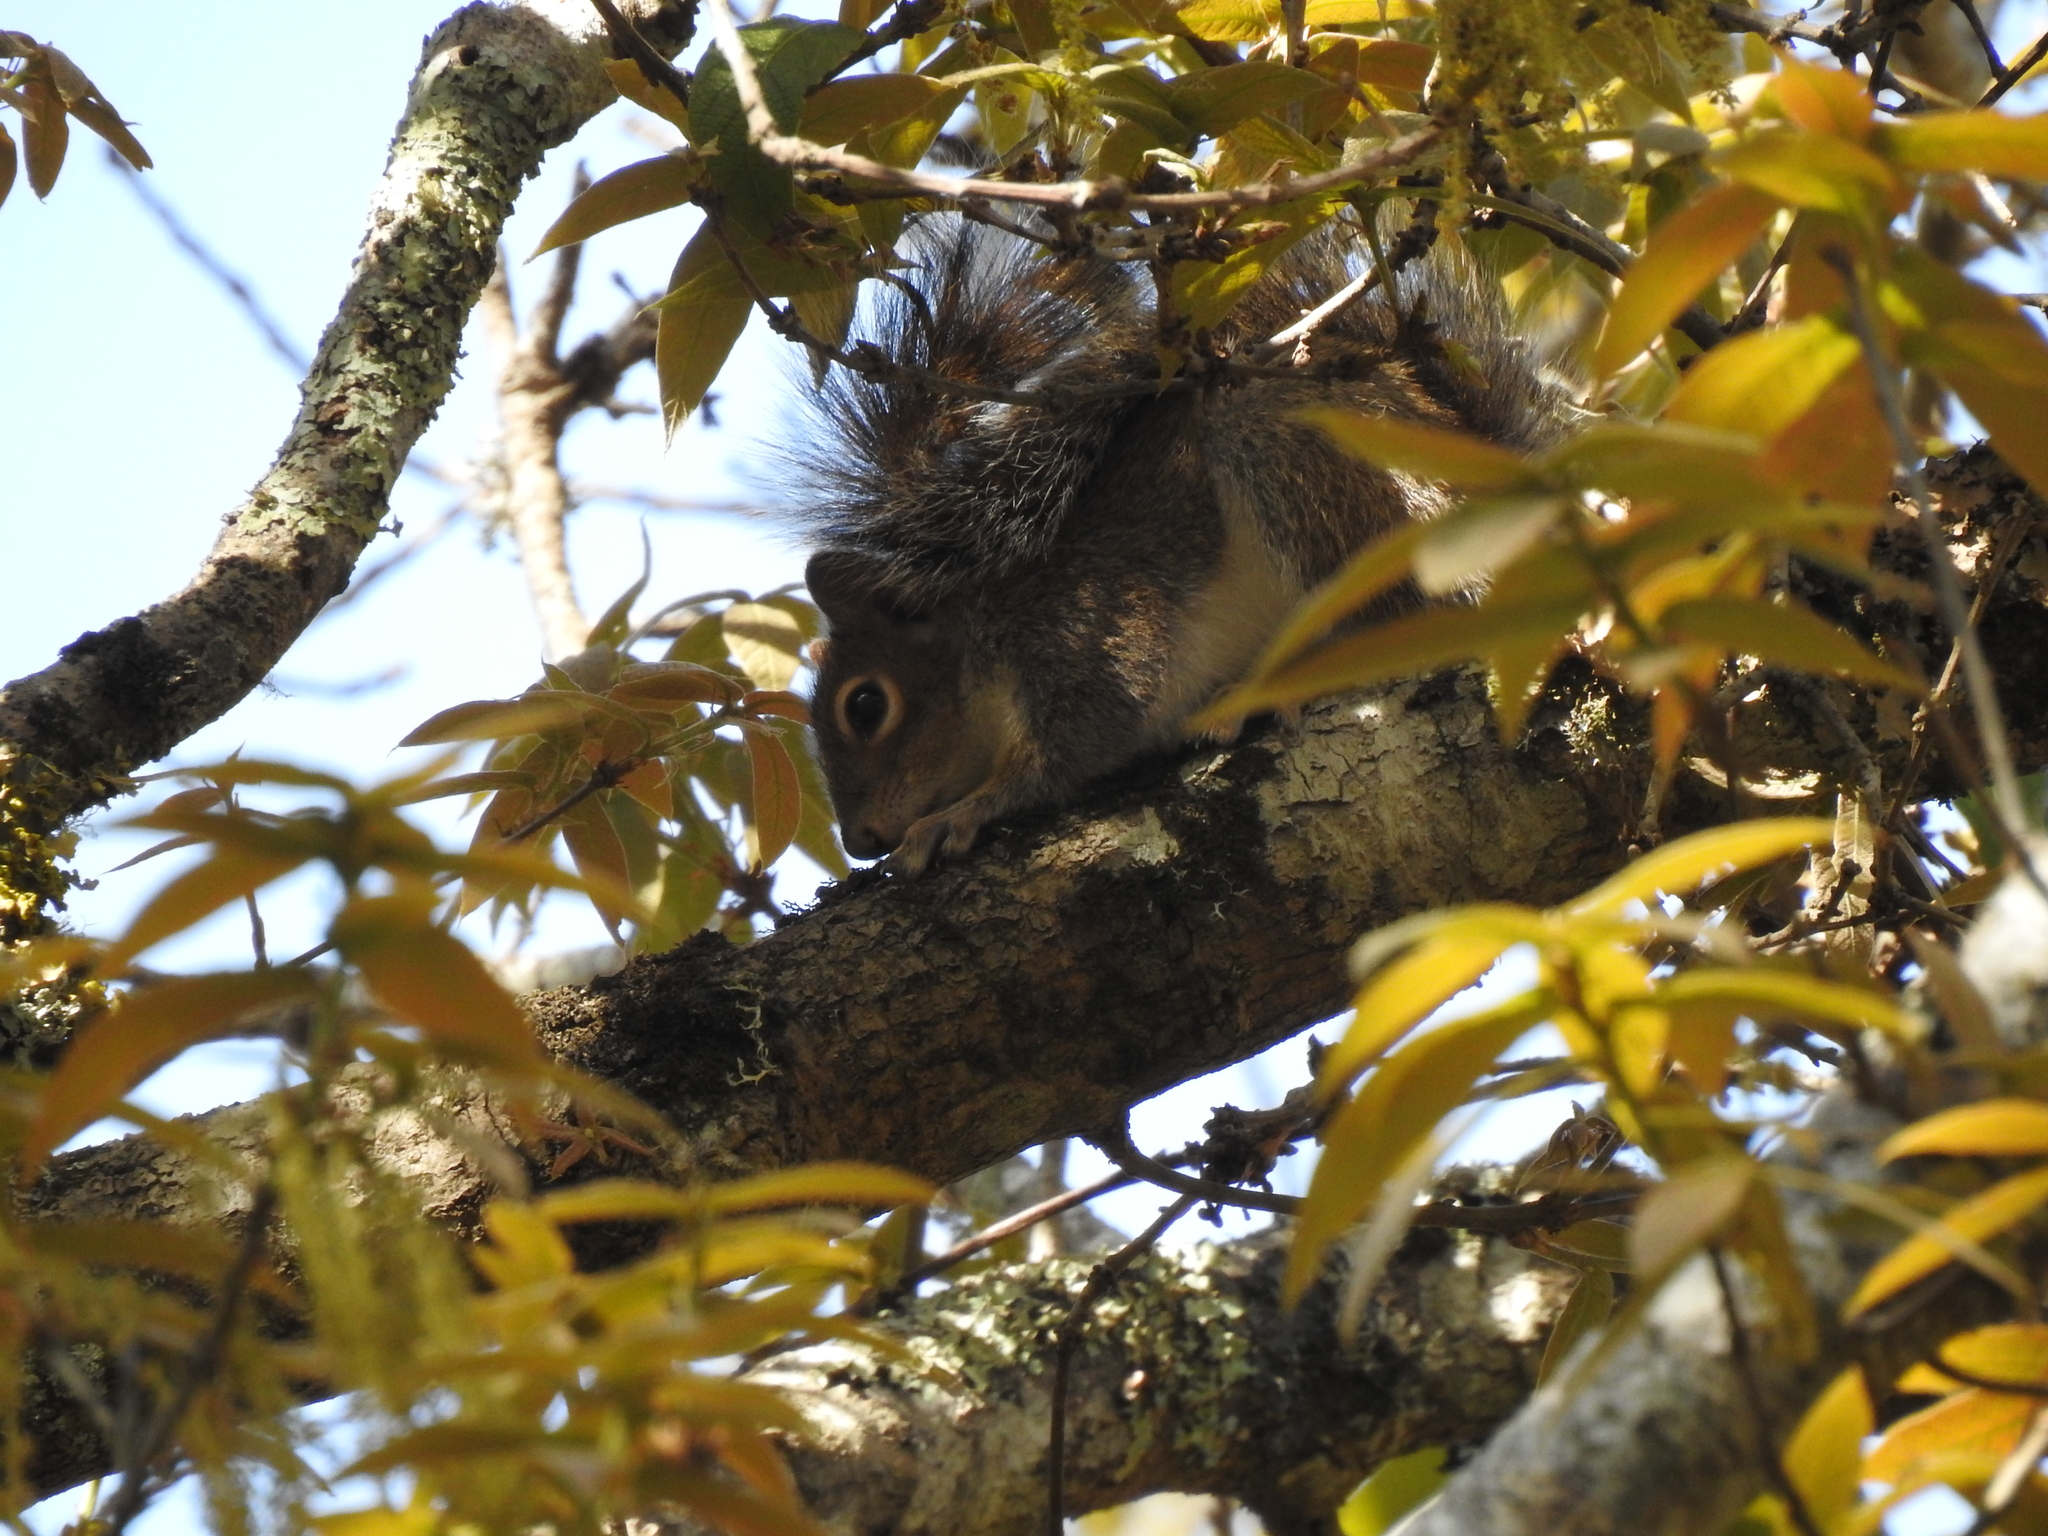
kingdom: Animalia
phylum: Chordata
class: Mammalia
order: Rodentia
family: Sciuridae
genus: Sciurus
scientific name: Sciurus alleni
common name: Allen's squirrel
